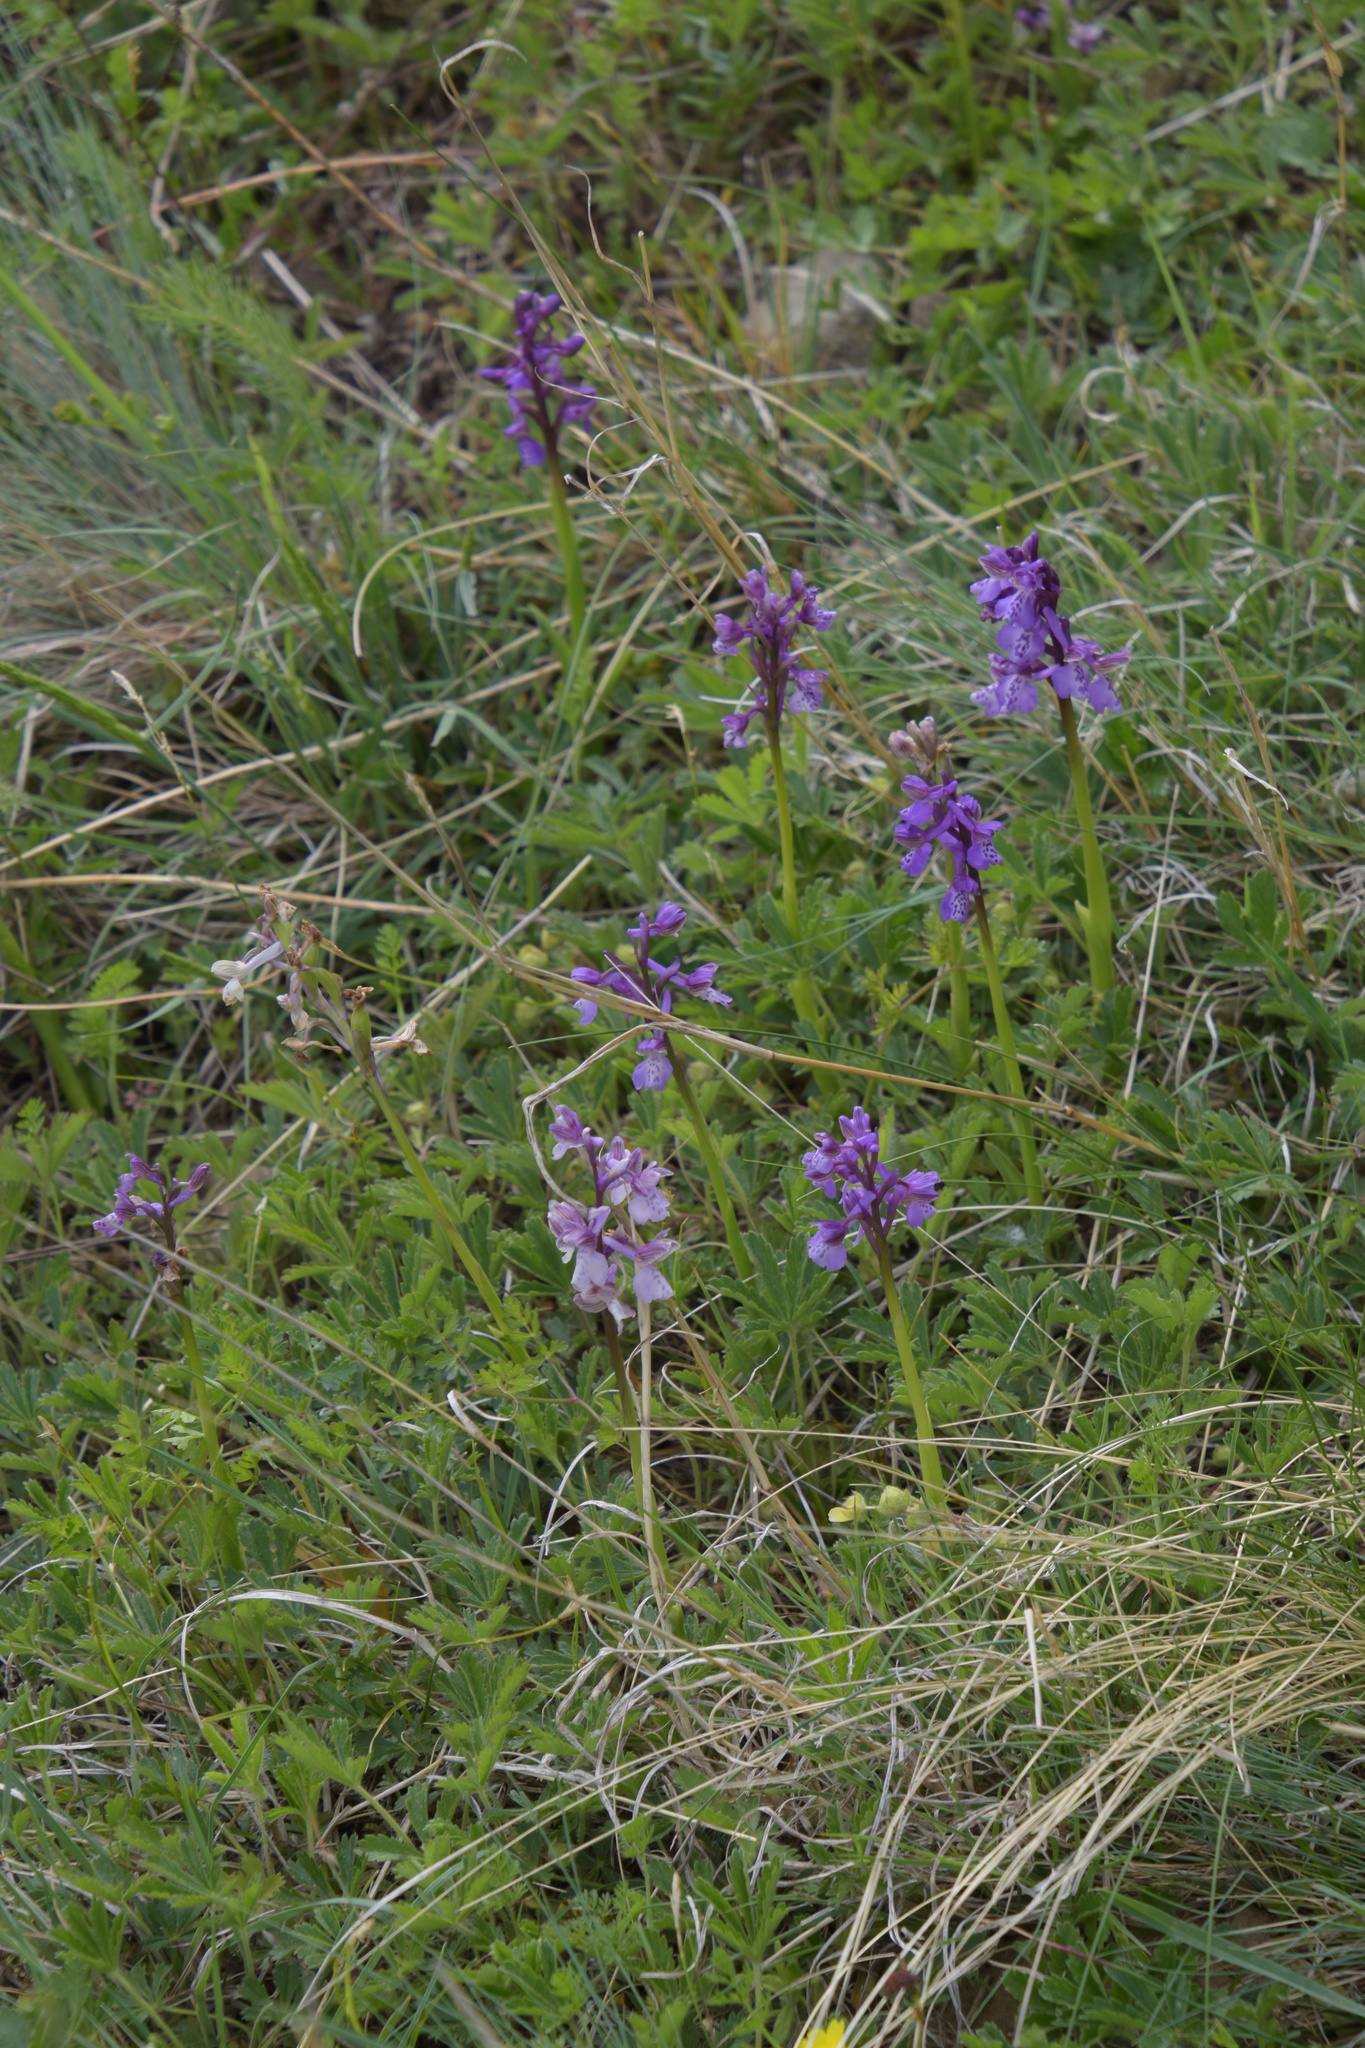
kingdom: Plantae
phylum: Tracheophyta
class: Liliopsida
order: Asparagales
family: Orchidaceae
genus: Anacamptis
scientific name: Anacamptis morio
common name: Green-winged orchid
